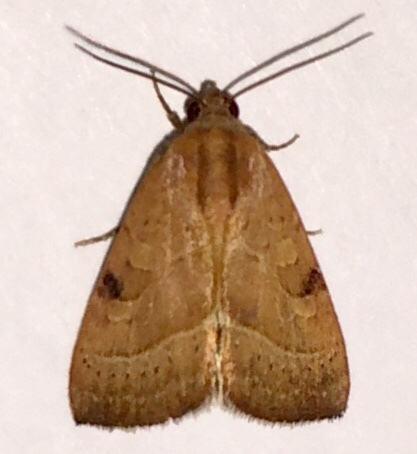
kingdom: Animalia
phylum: Arthropoda
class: Insecta
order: Lepidoptera
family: Noctuidae
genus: Galgula
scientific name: Galgula partita
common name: Wedgeling
